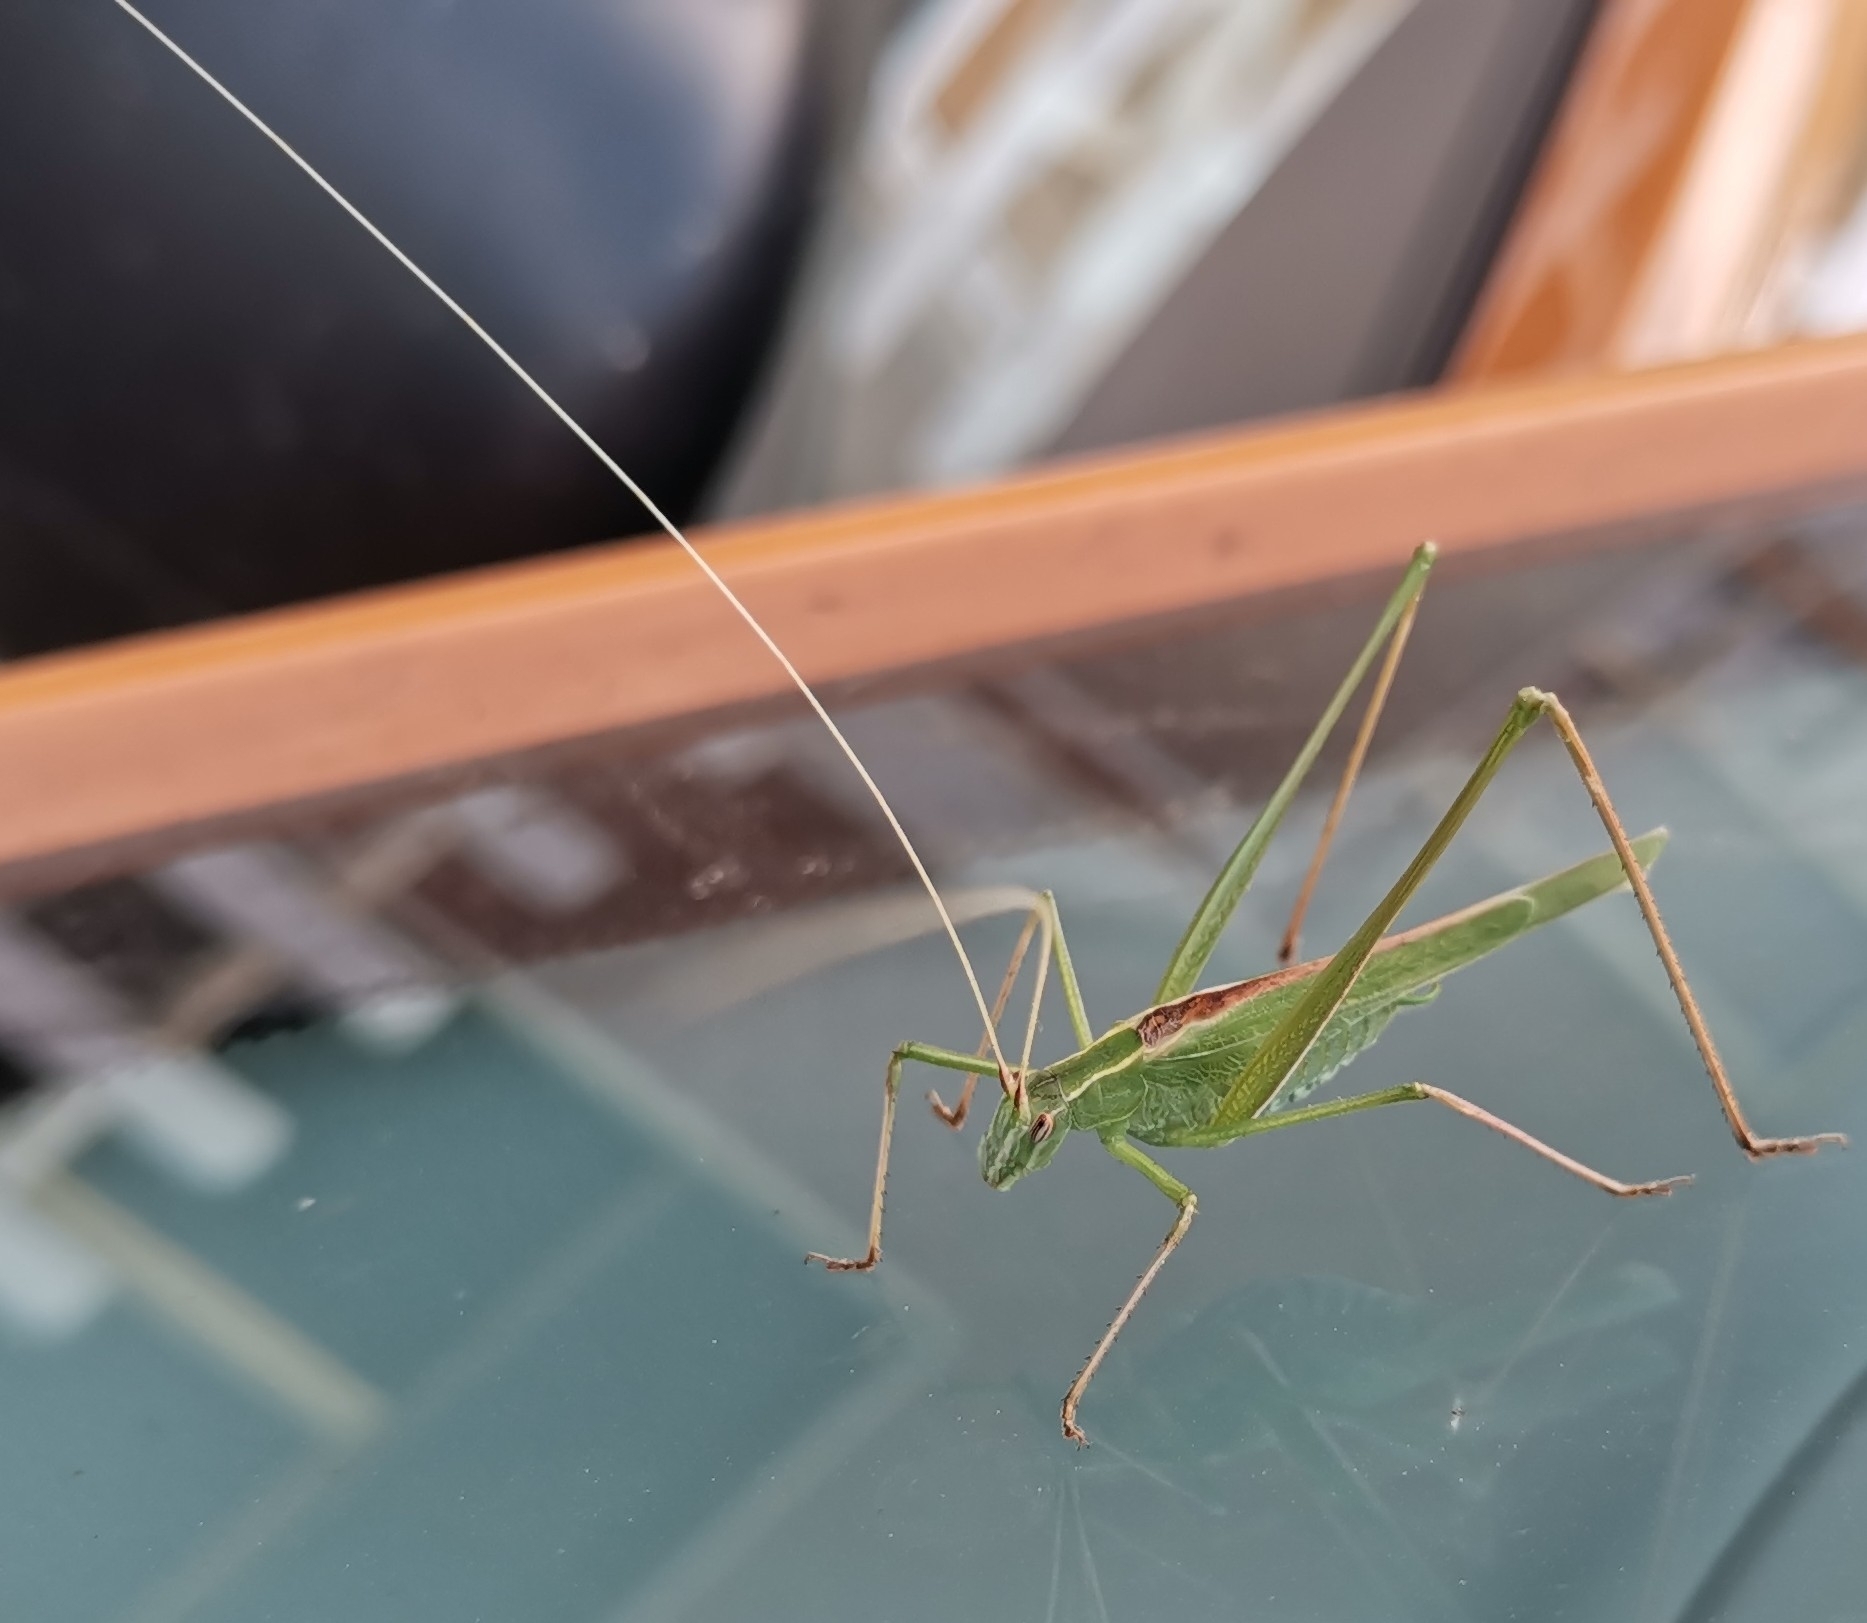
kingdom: Animalia
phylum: Arthropoda
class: Insecta
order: Orthoptera
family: Tettigoniidae
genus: Tylopsis
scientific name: Tylopsis lilifolia
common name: Lily bush-cricket
